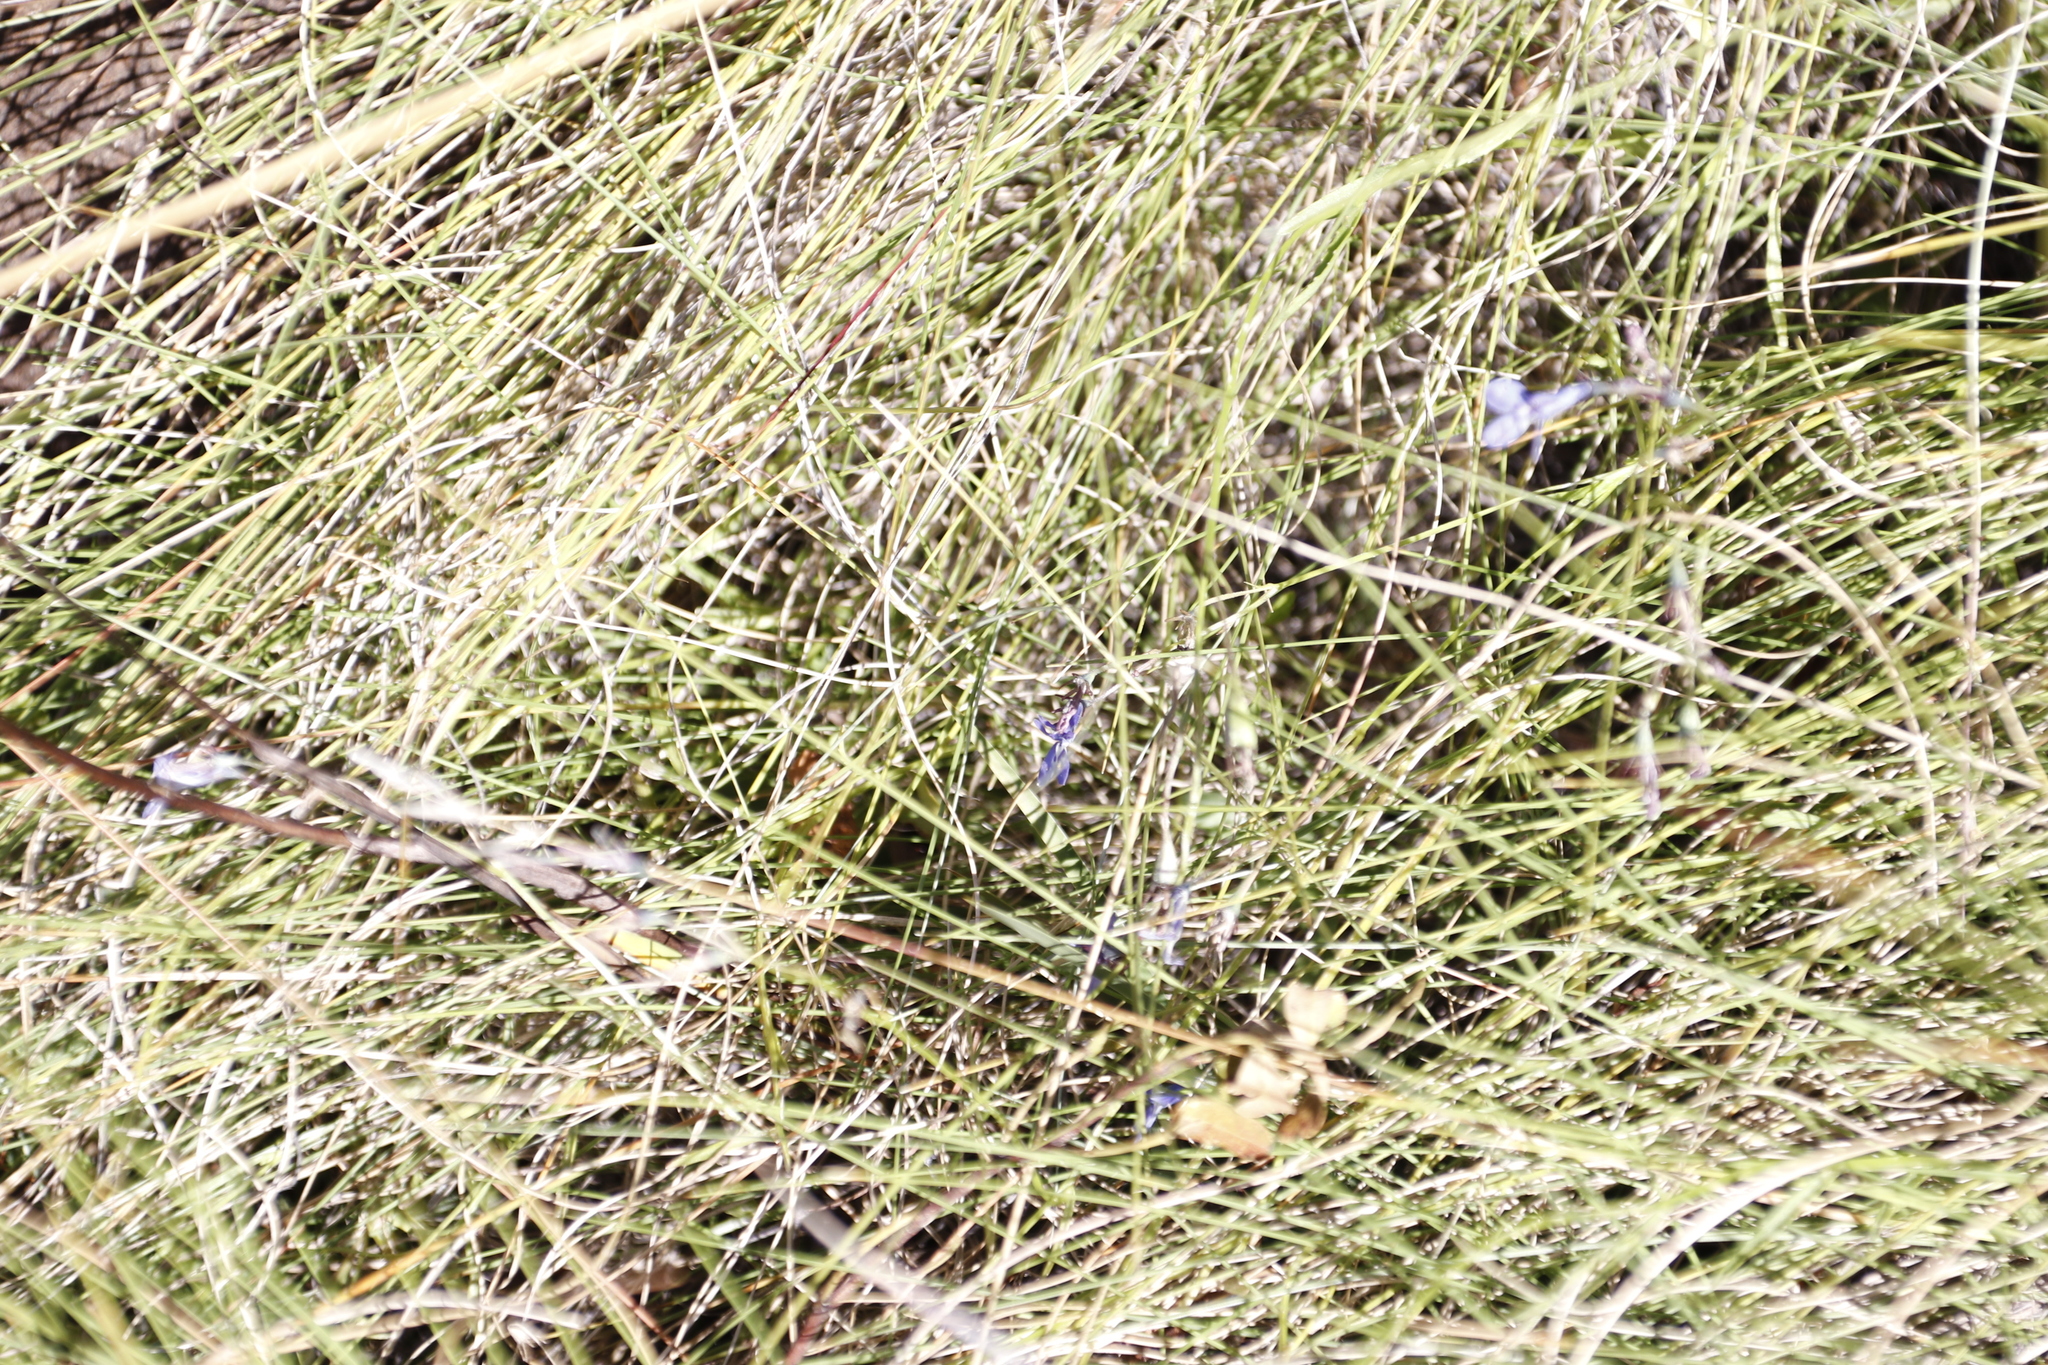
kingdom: Plantae
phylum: Tracheophyta
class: Magnoliopsida
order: Asterales
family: Campanulaceae
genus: Lobelia
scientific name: Lobelia flaccida
